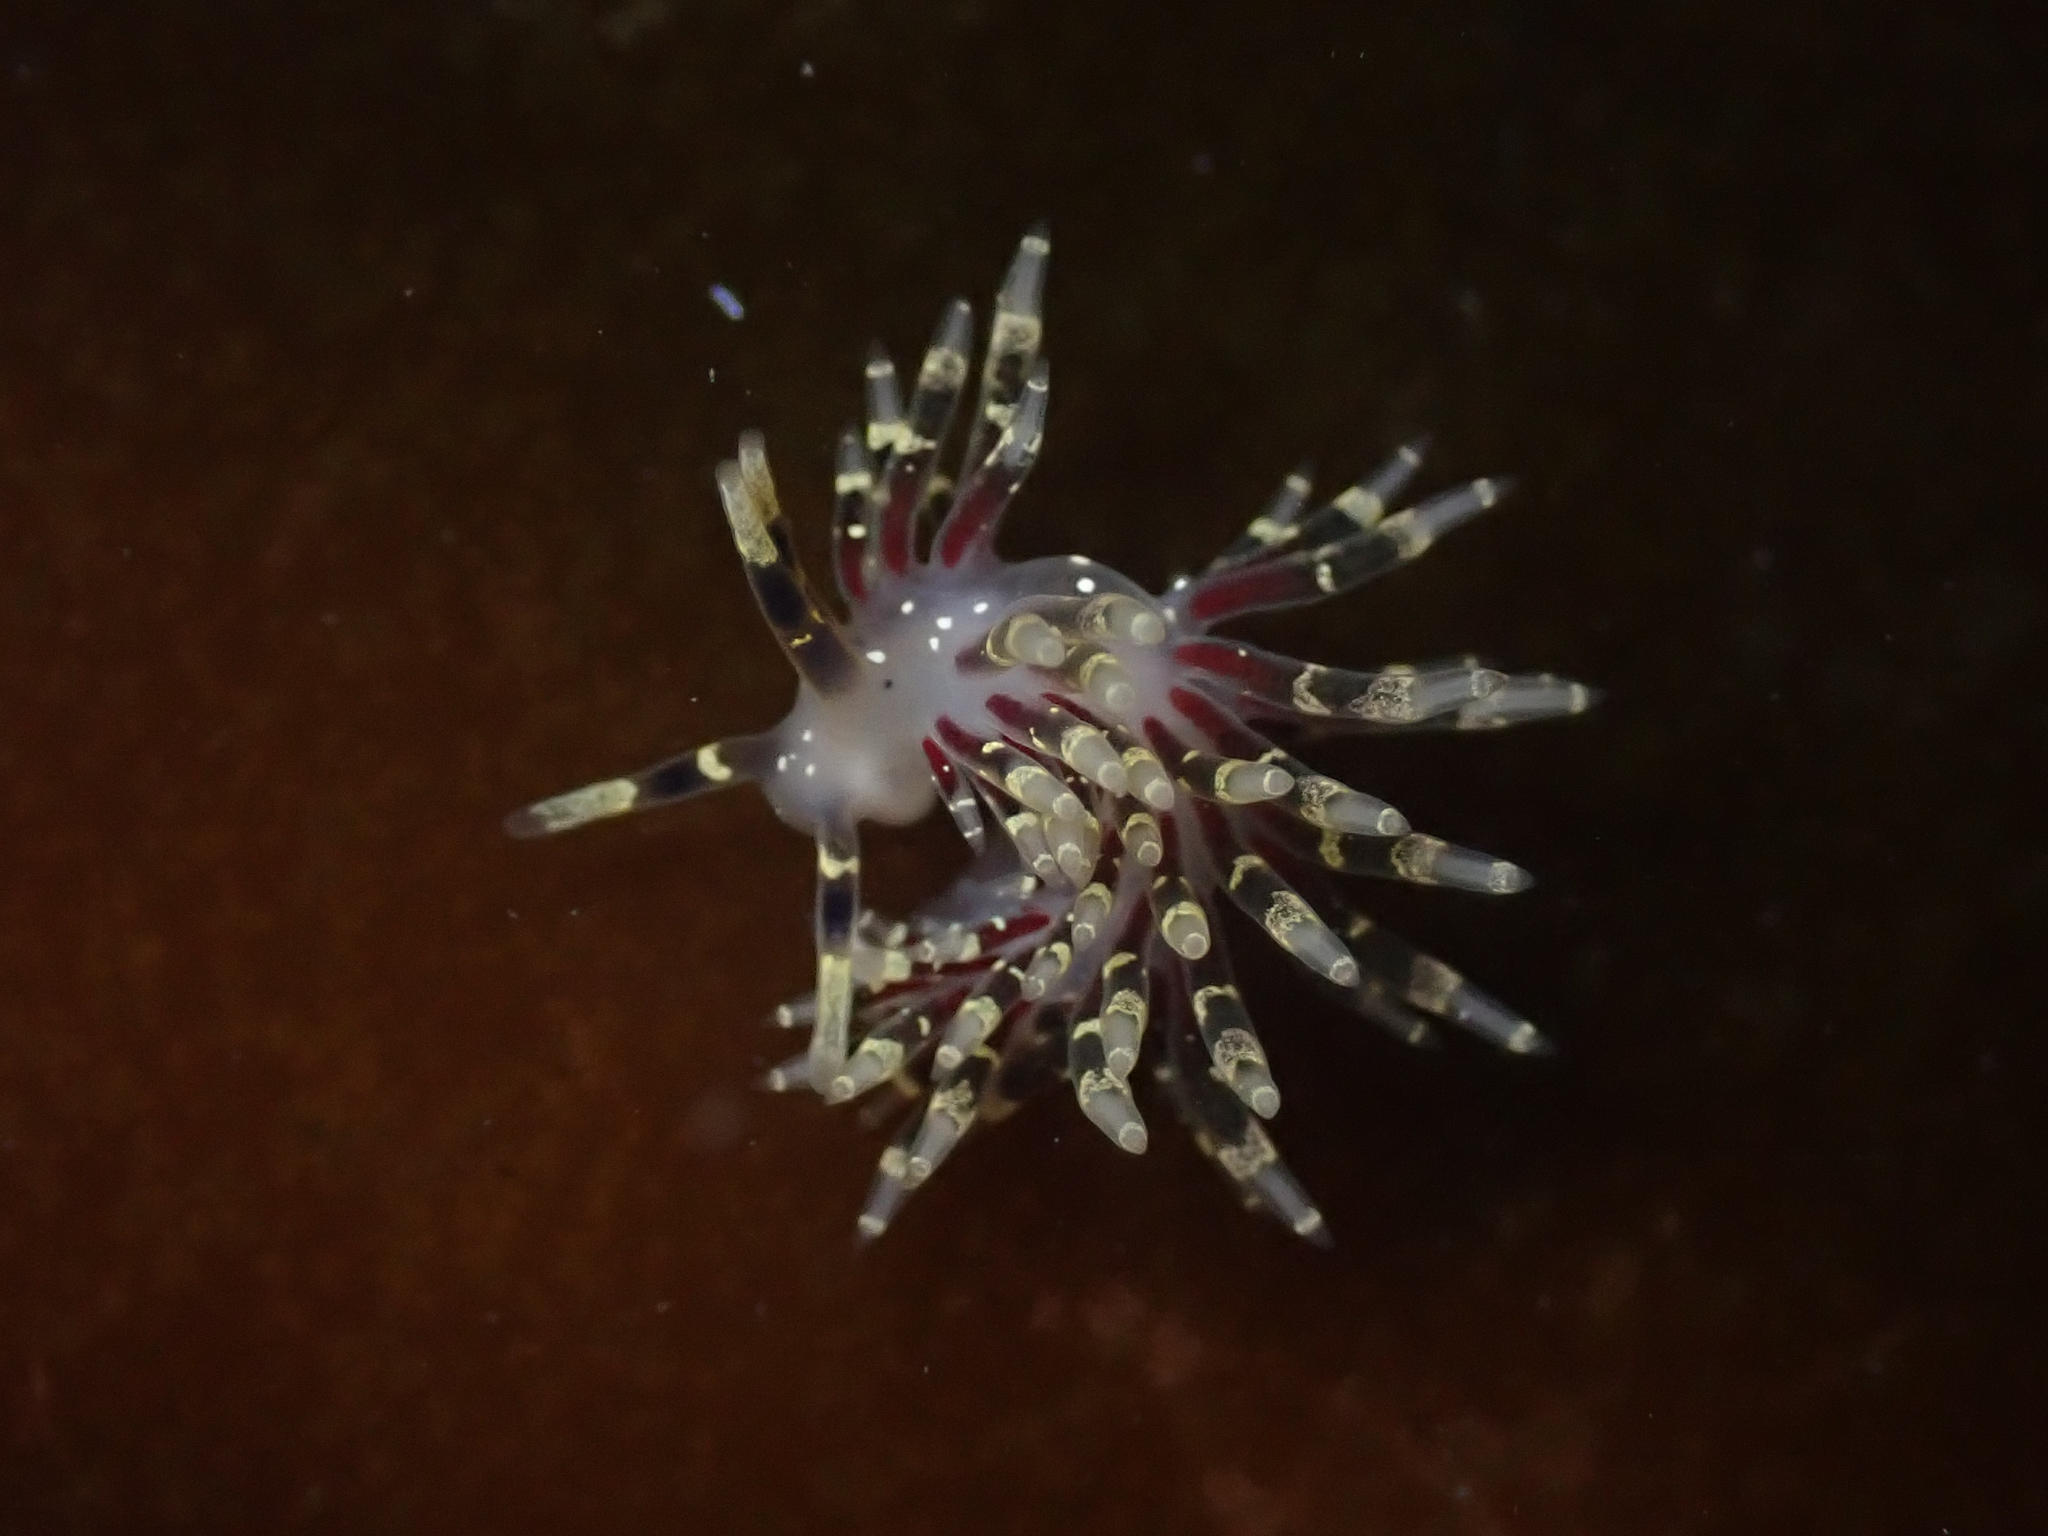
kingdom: Animalia
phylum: Mollusca
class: Gastropoda
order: Nudibranchia
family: Abronicidae
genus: Abronica
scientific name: Abronica abronia
